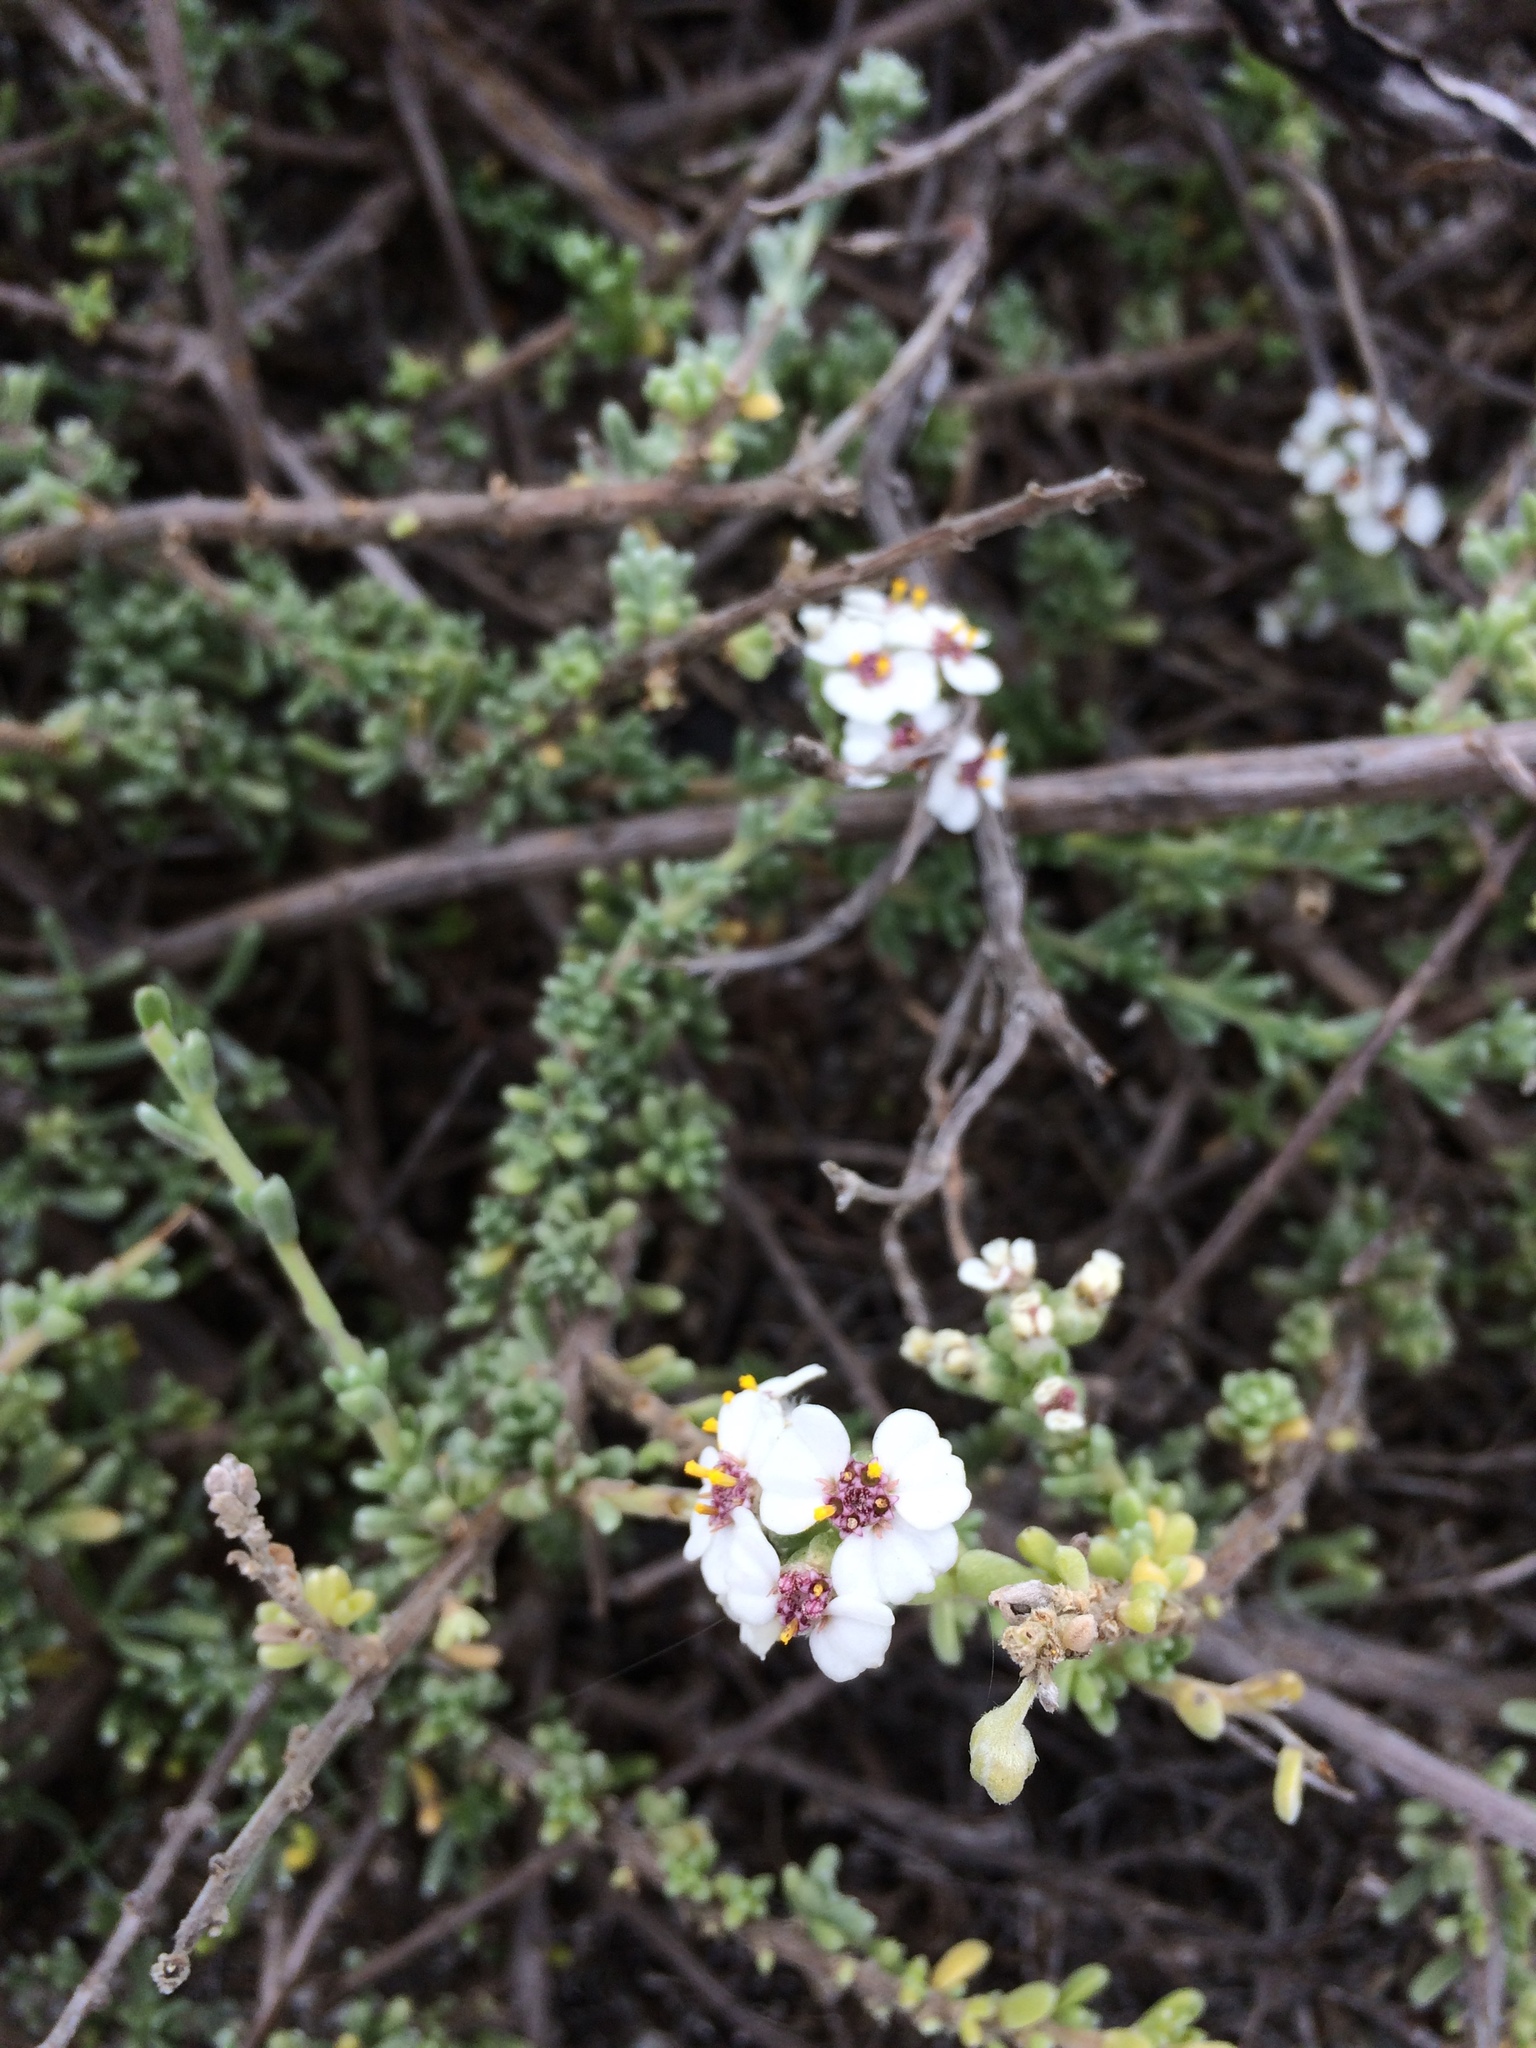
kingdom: Plantae
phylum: Tracheophyta
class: Magnoliopsida
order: Asterales
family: Asteraceae
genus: Eriocephalus
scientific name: Eriocephalus africanus
